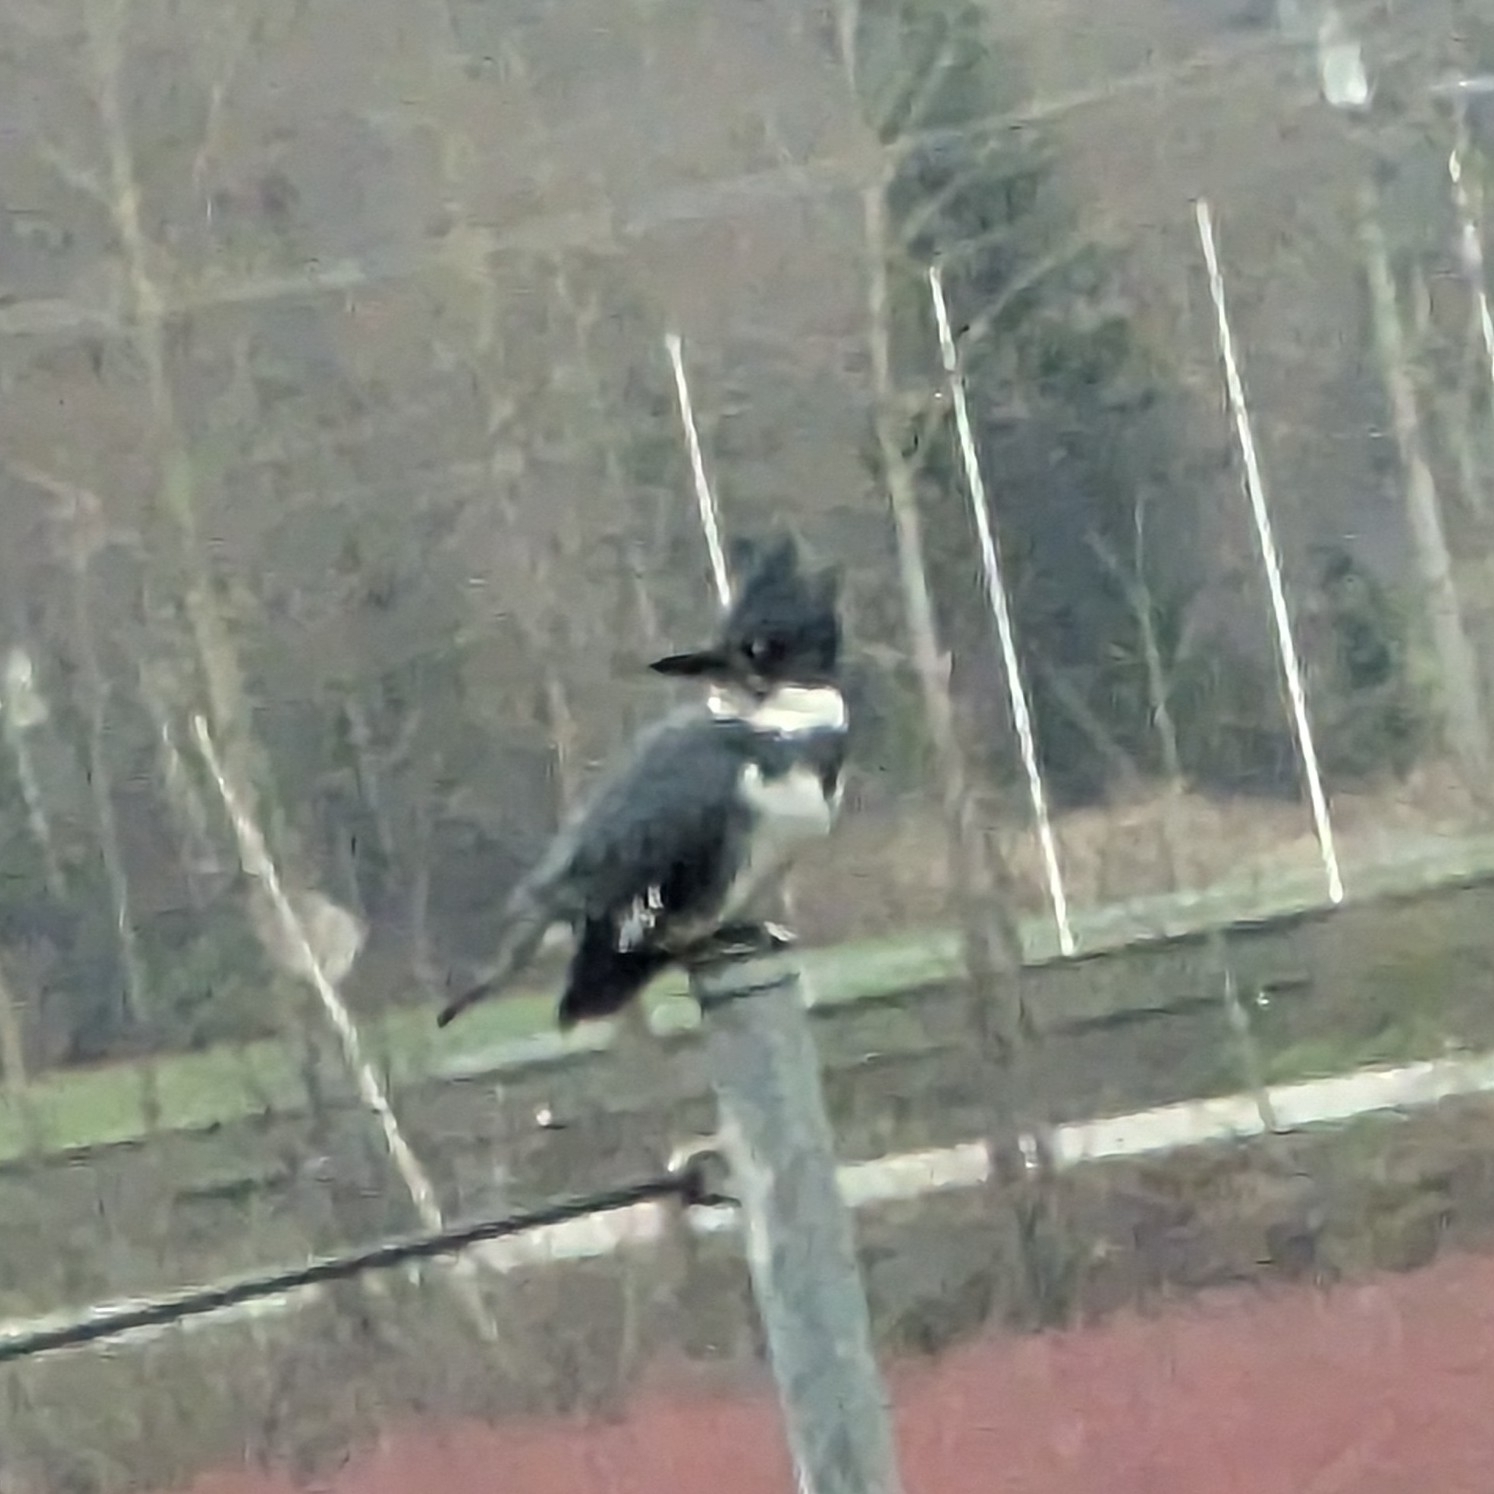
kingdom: Animalia
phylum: Chordata
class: Aves
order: Coraciiformes
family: Alcedinidae
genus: Megaceryle
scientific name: Megaceryle alcyon
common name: Belted kingfisher
